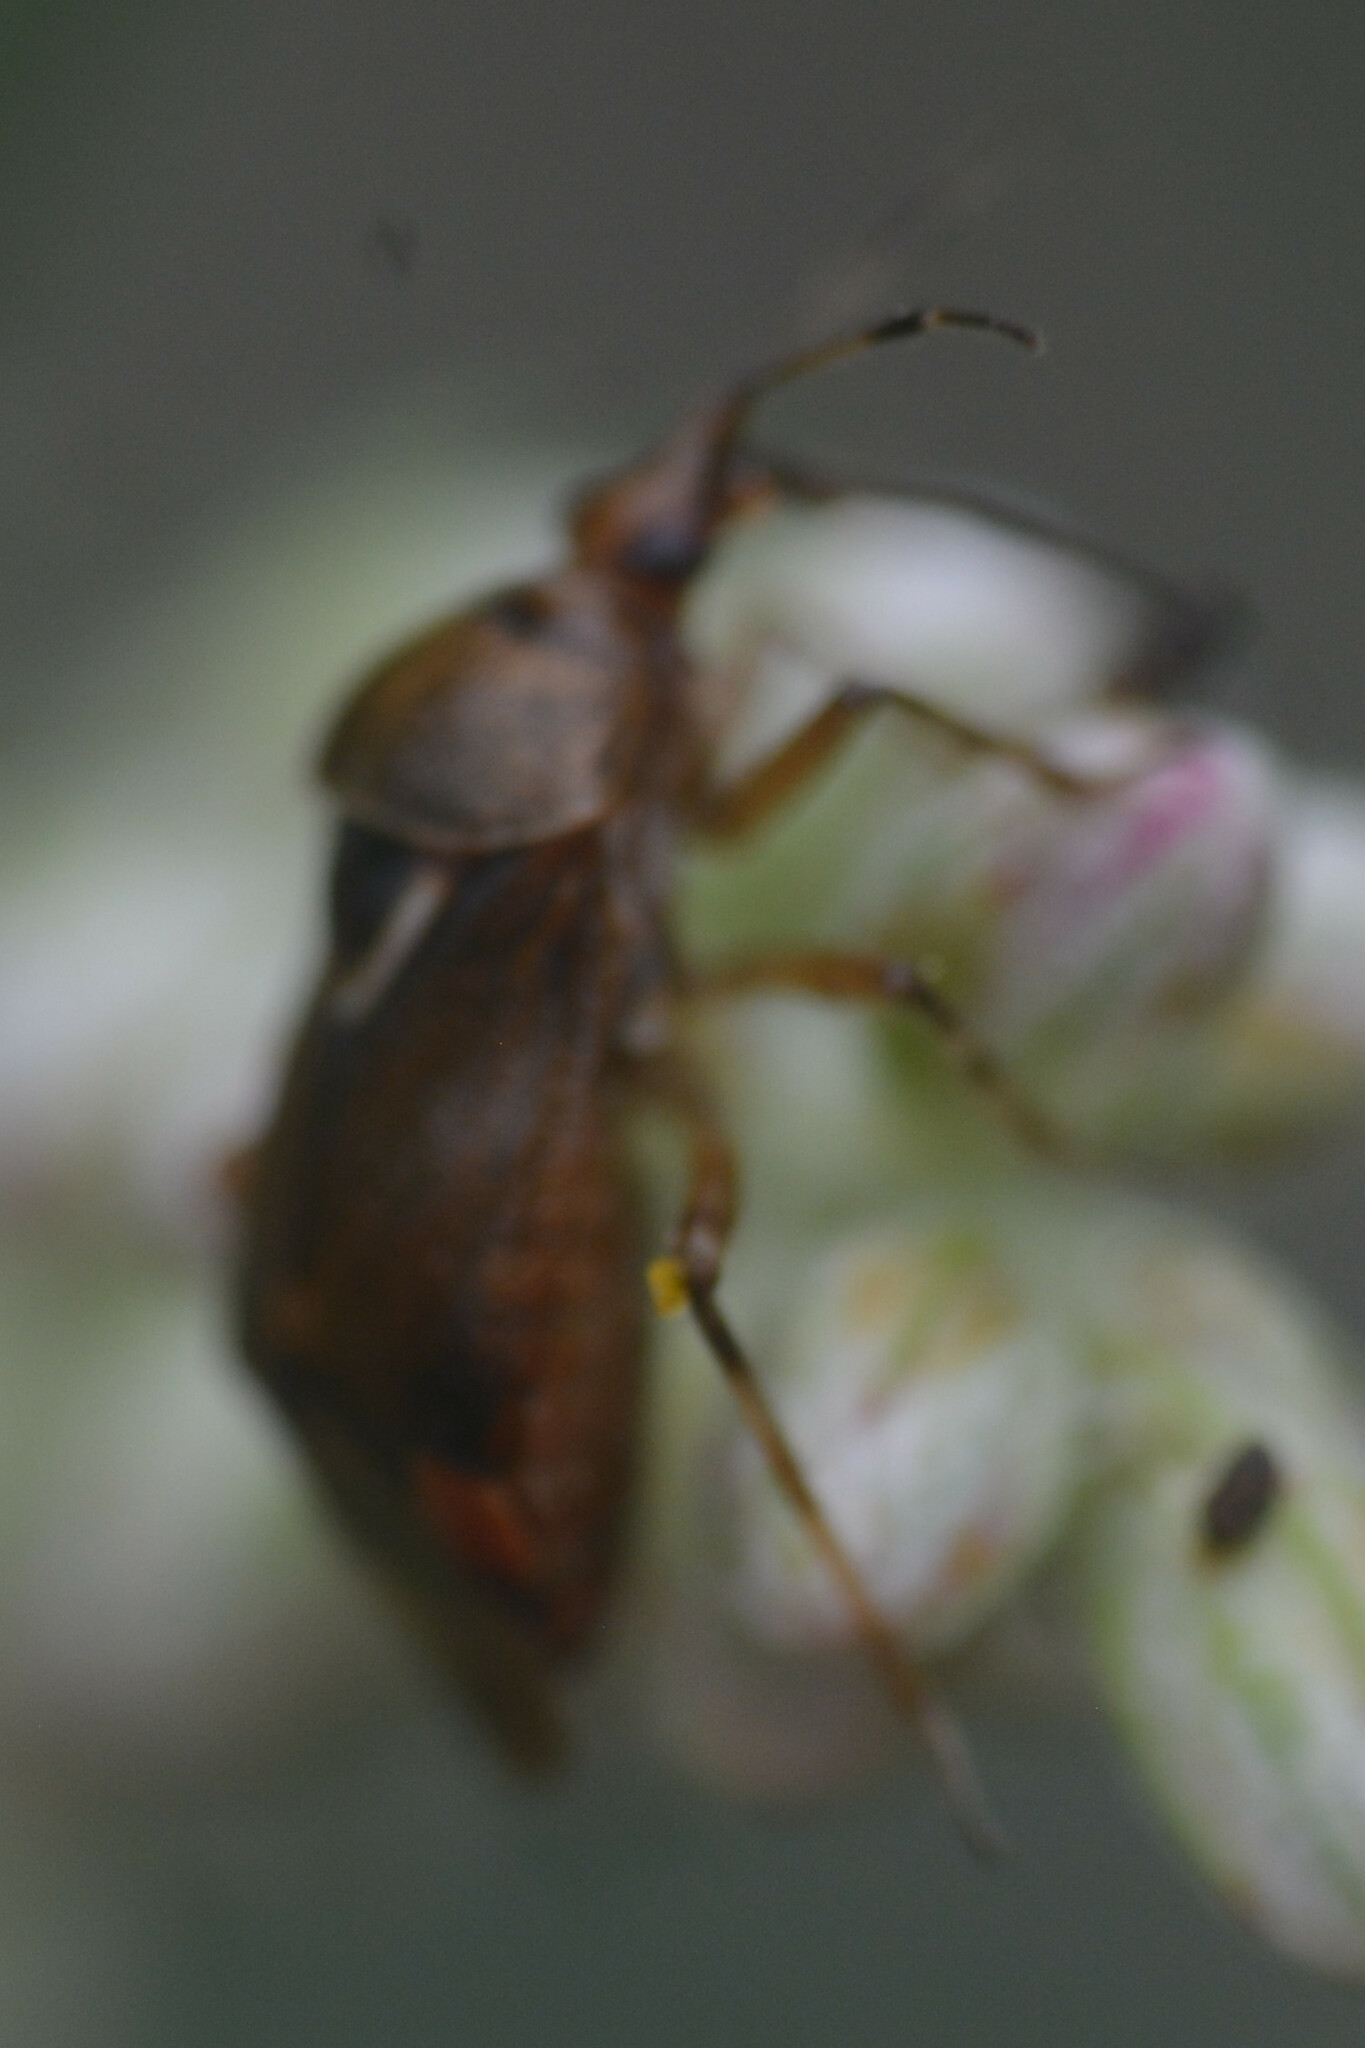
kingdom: Animalia
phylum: Arthropoda
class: Insecta
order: Hemiptera
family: Miridae
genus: Deraeocoris
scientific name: Deraeocoris flavilinea
